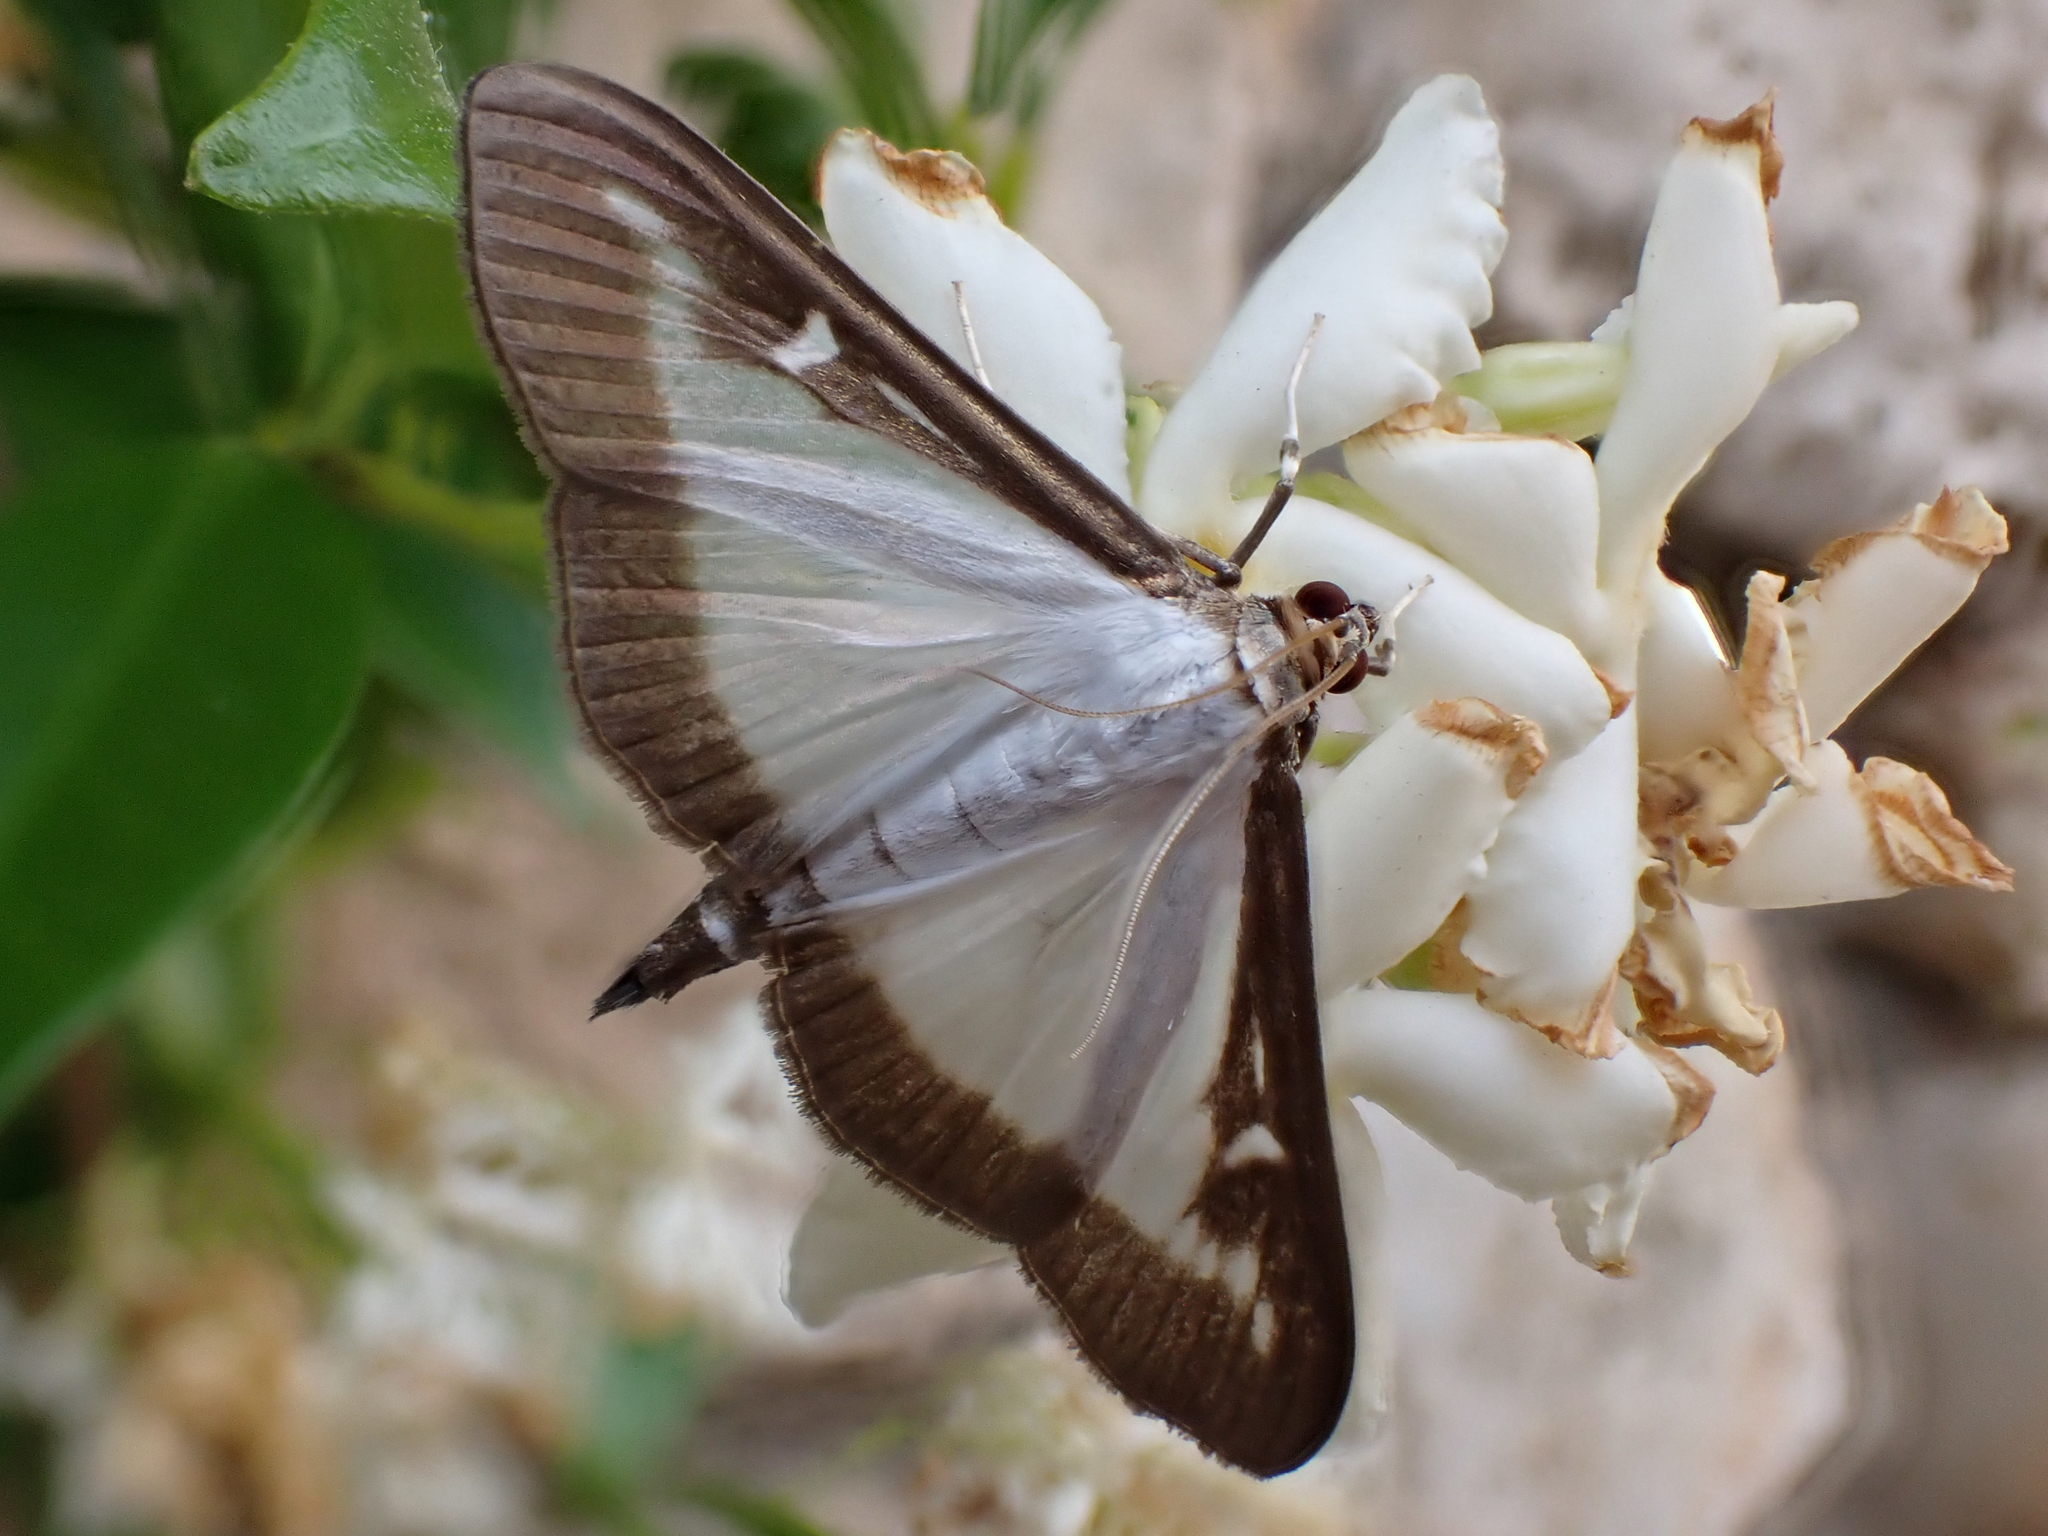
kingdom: Animalia
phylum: Arthropoda
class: Insecta
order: Lepidoptera
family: Crambidae
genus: Cydalima
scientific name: Cydalima perspectalis
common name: Box tree moth
